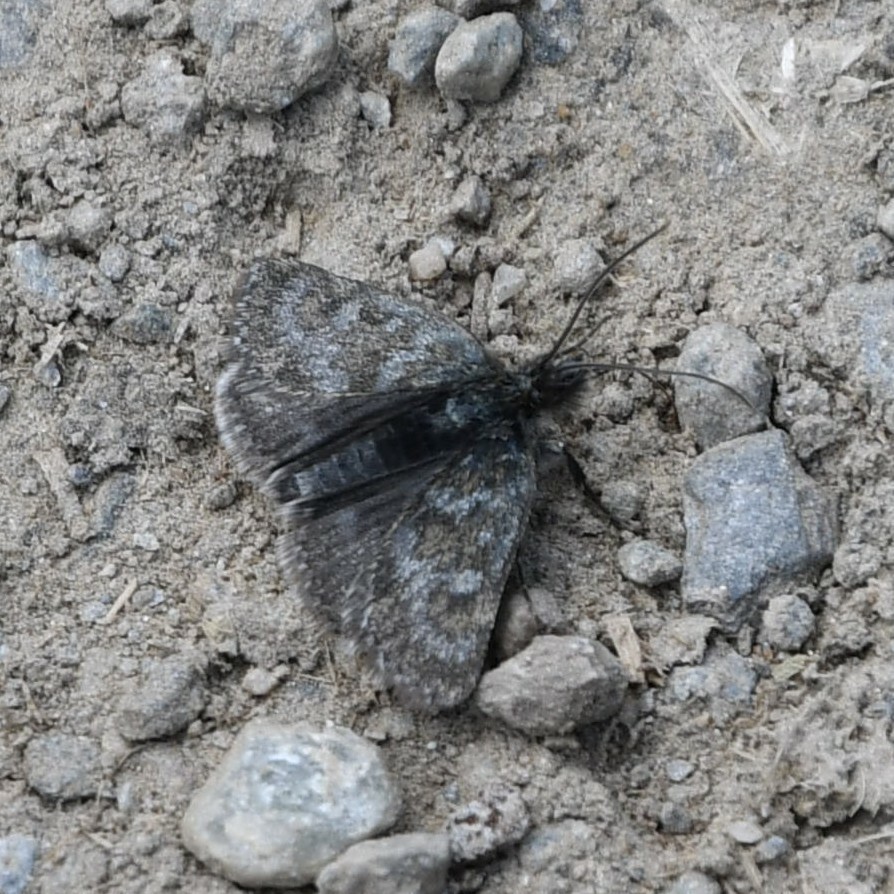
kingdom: Animalia
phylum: Arthropoda
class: Insecta
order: Lepidoptera
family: Crambidae
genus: Metaxmeste
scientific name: Metaxmeste phrygialis
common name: Black mountain pearl
